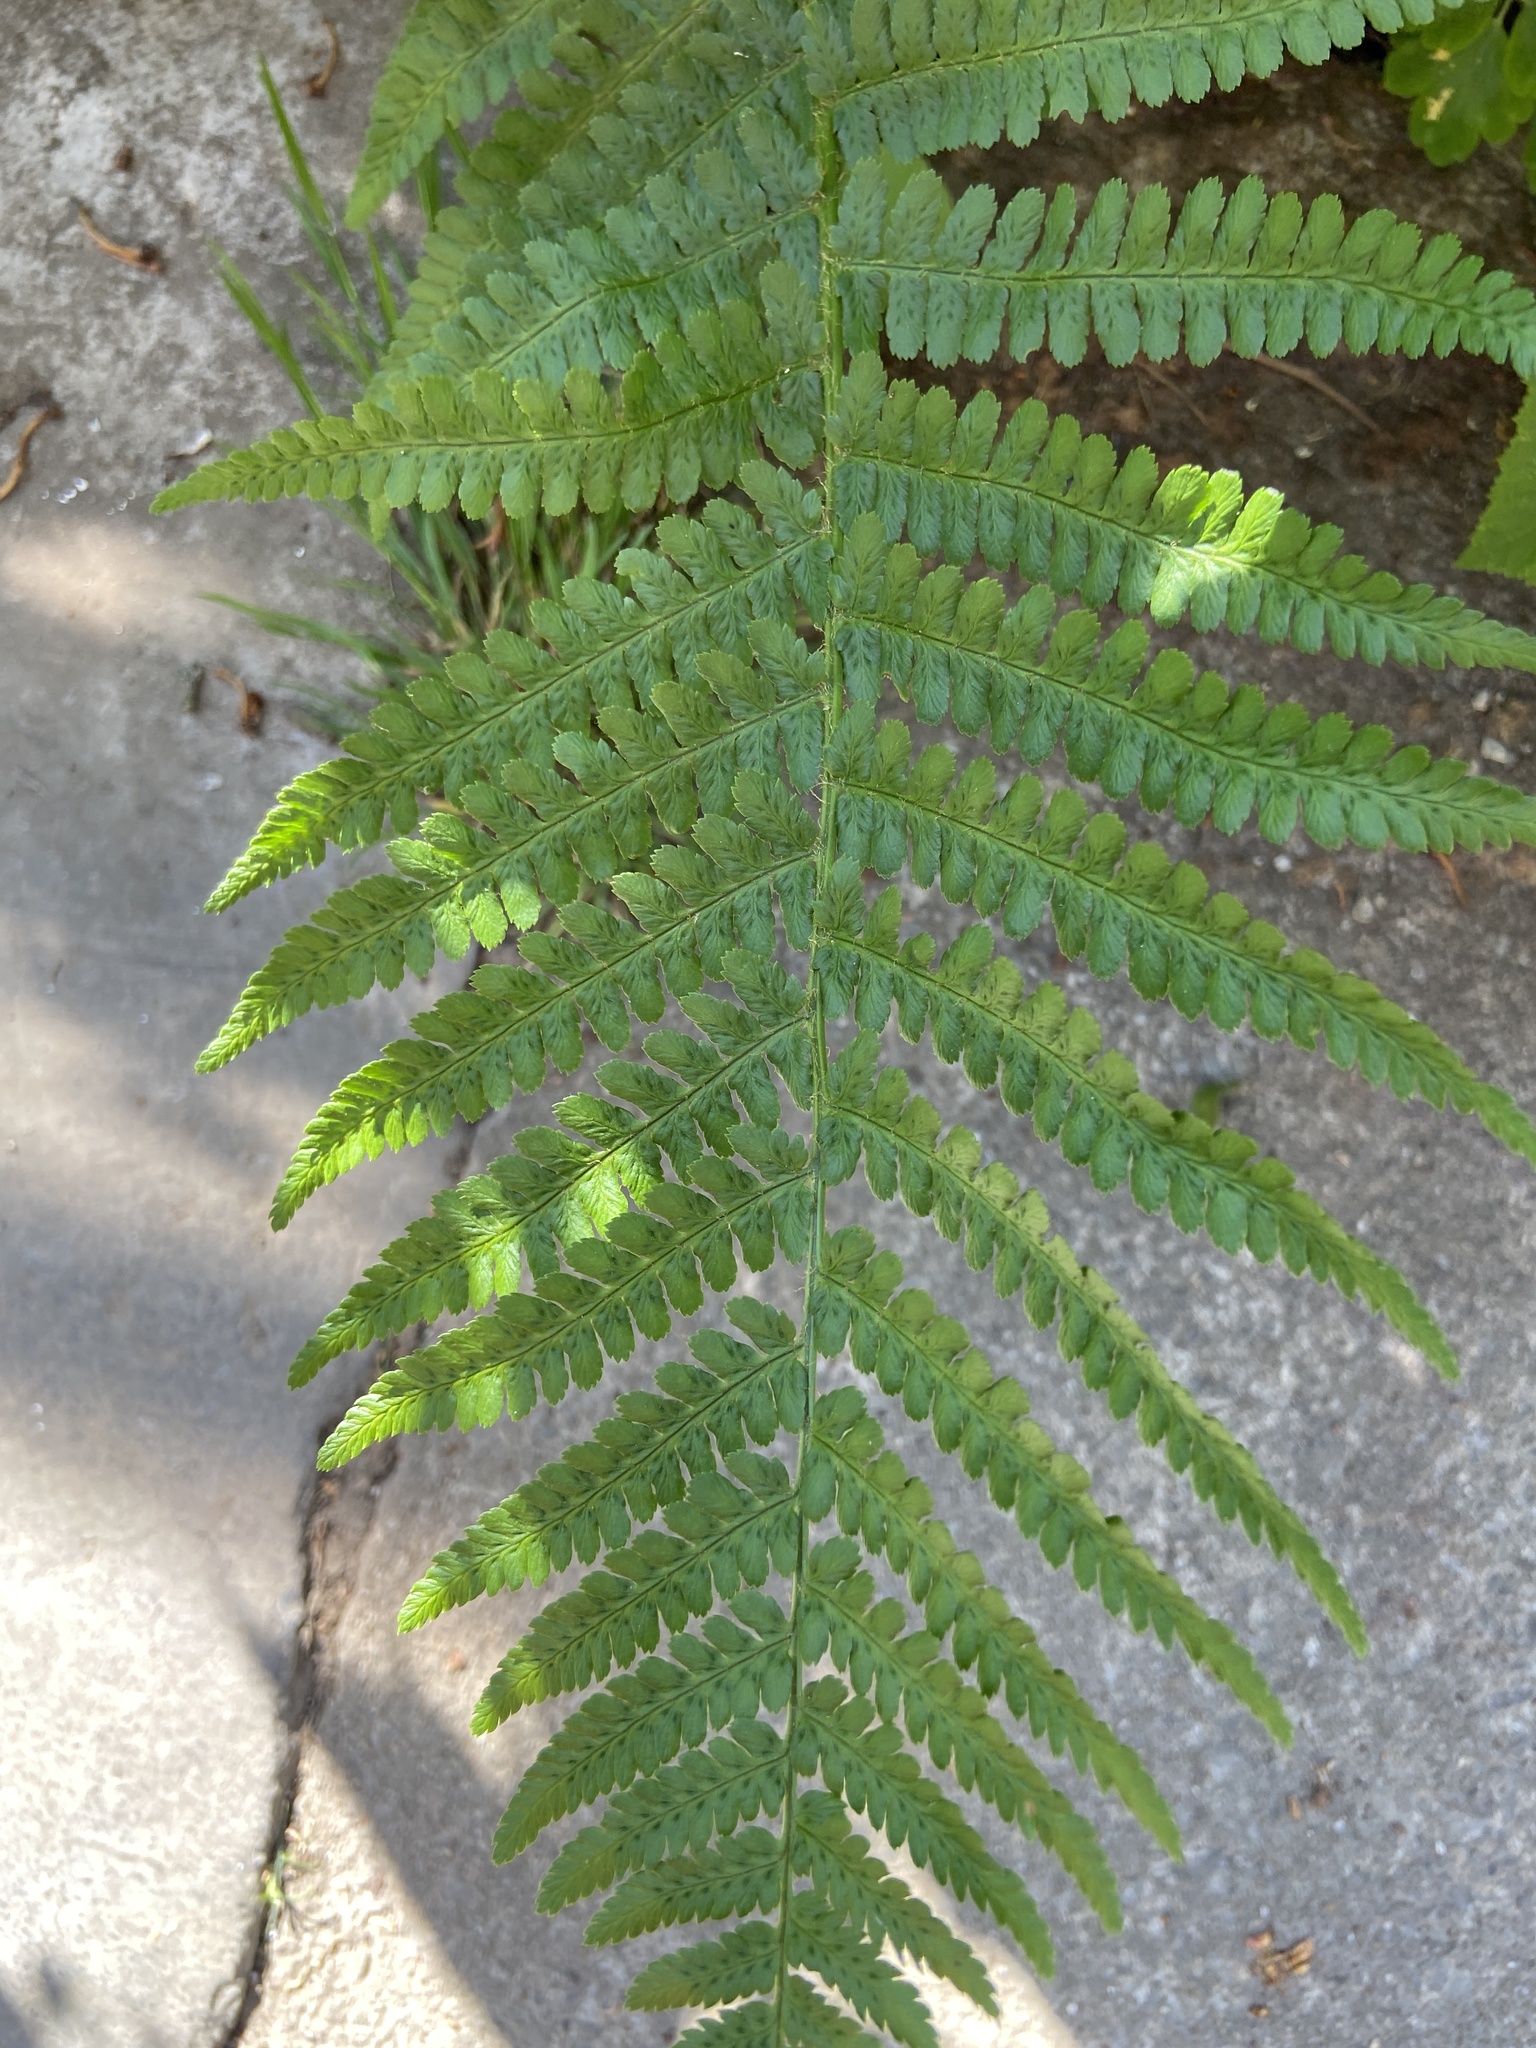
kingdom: Plantae
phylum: Tracheophyta
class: Polypodiopsida
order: Polypodiales
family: Dryopteridaceae
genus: Dryopteris
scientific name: Dryopteris filix-mas
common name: Male fern
